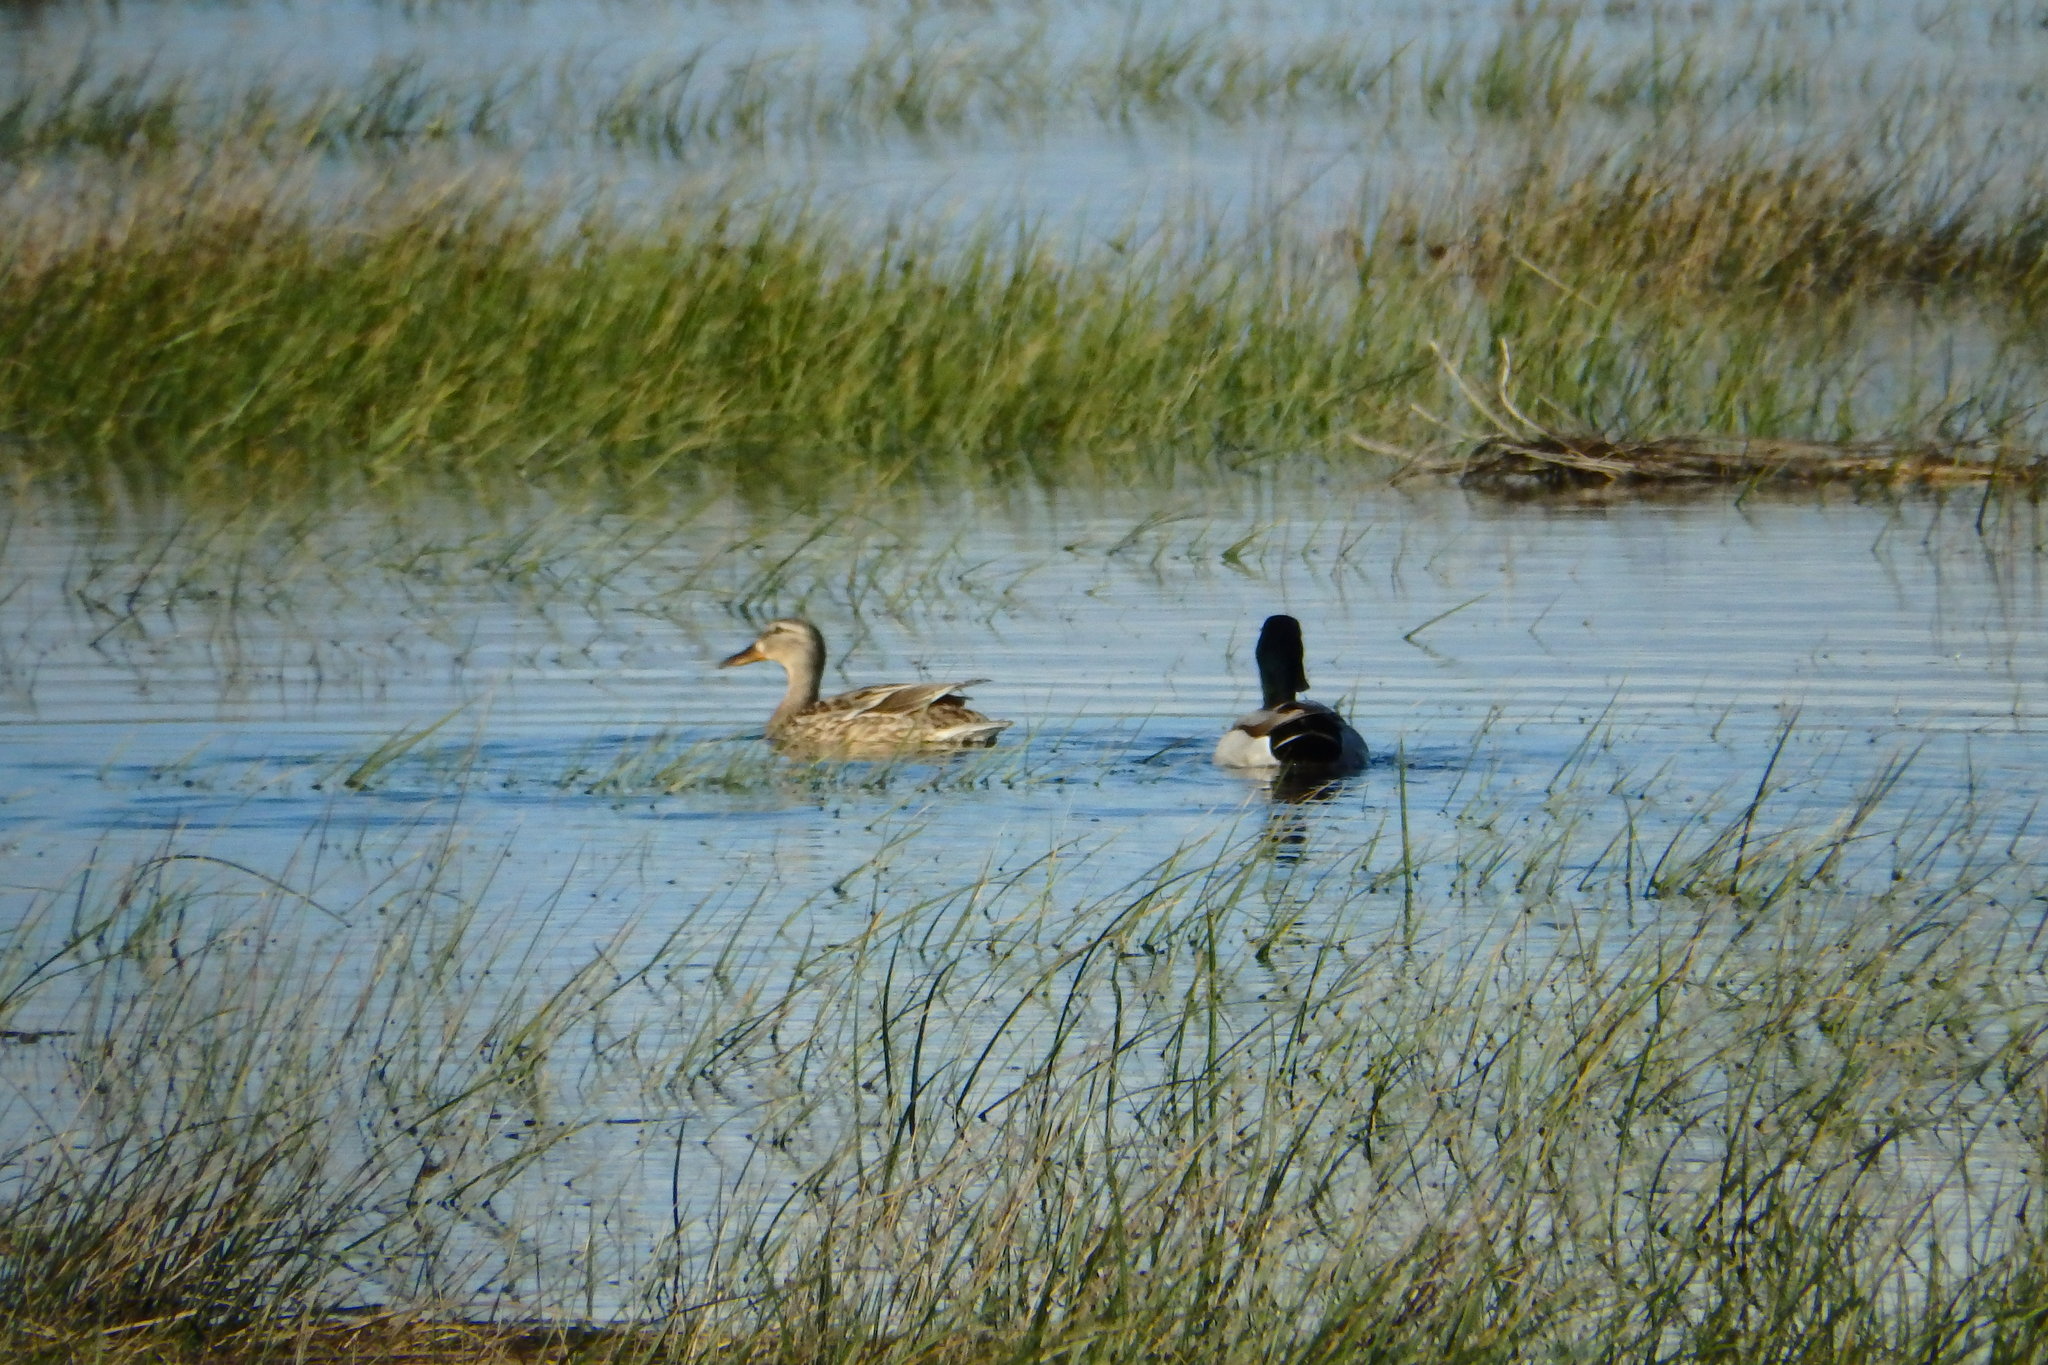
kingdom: Animalia
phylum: Chordata
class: Aves
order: Anseriformes
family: Anatidae
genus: Anas
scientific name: Anas platyrhynchos
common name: Mallard
